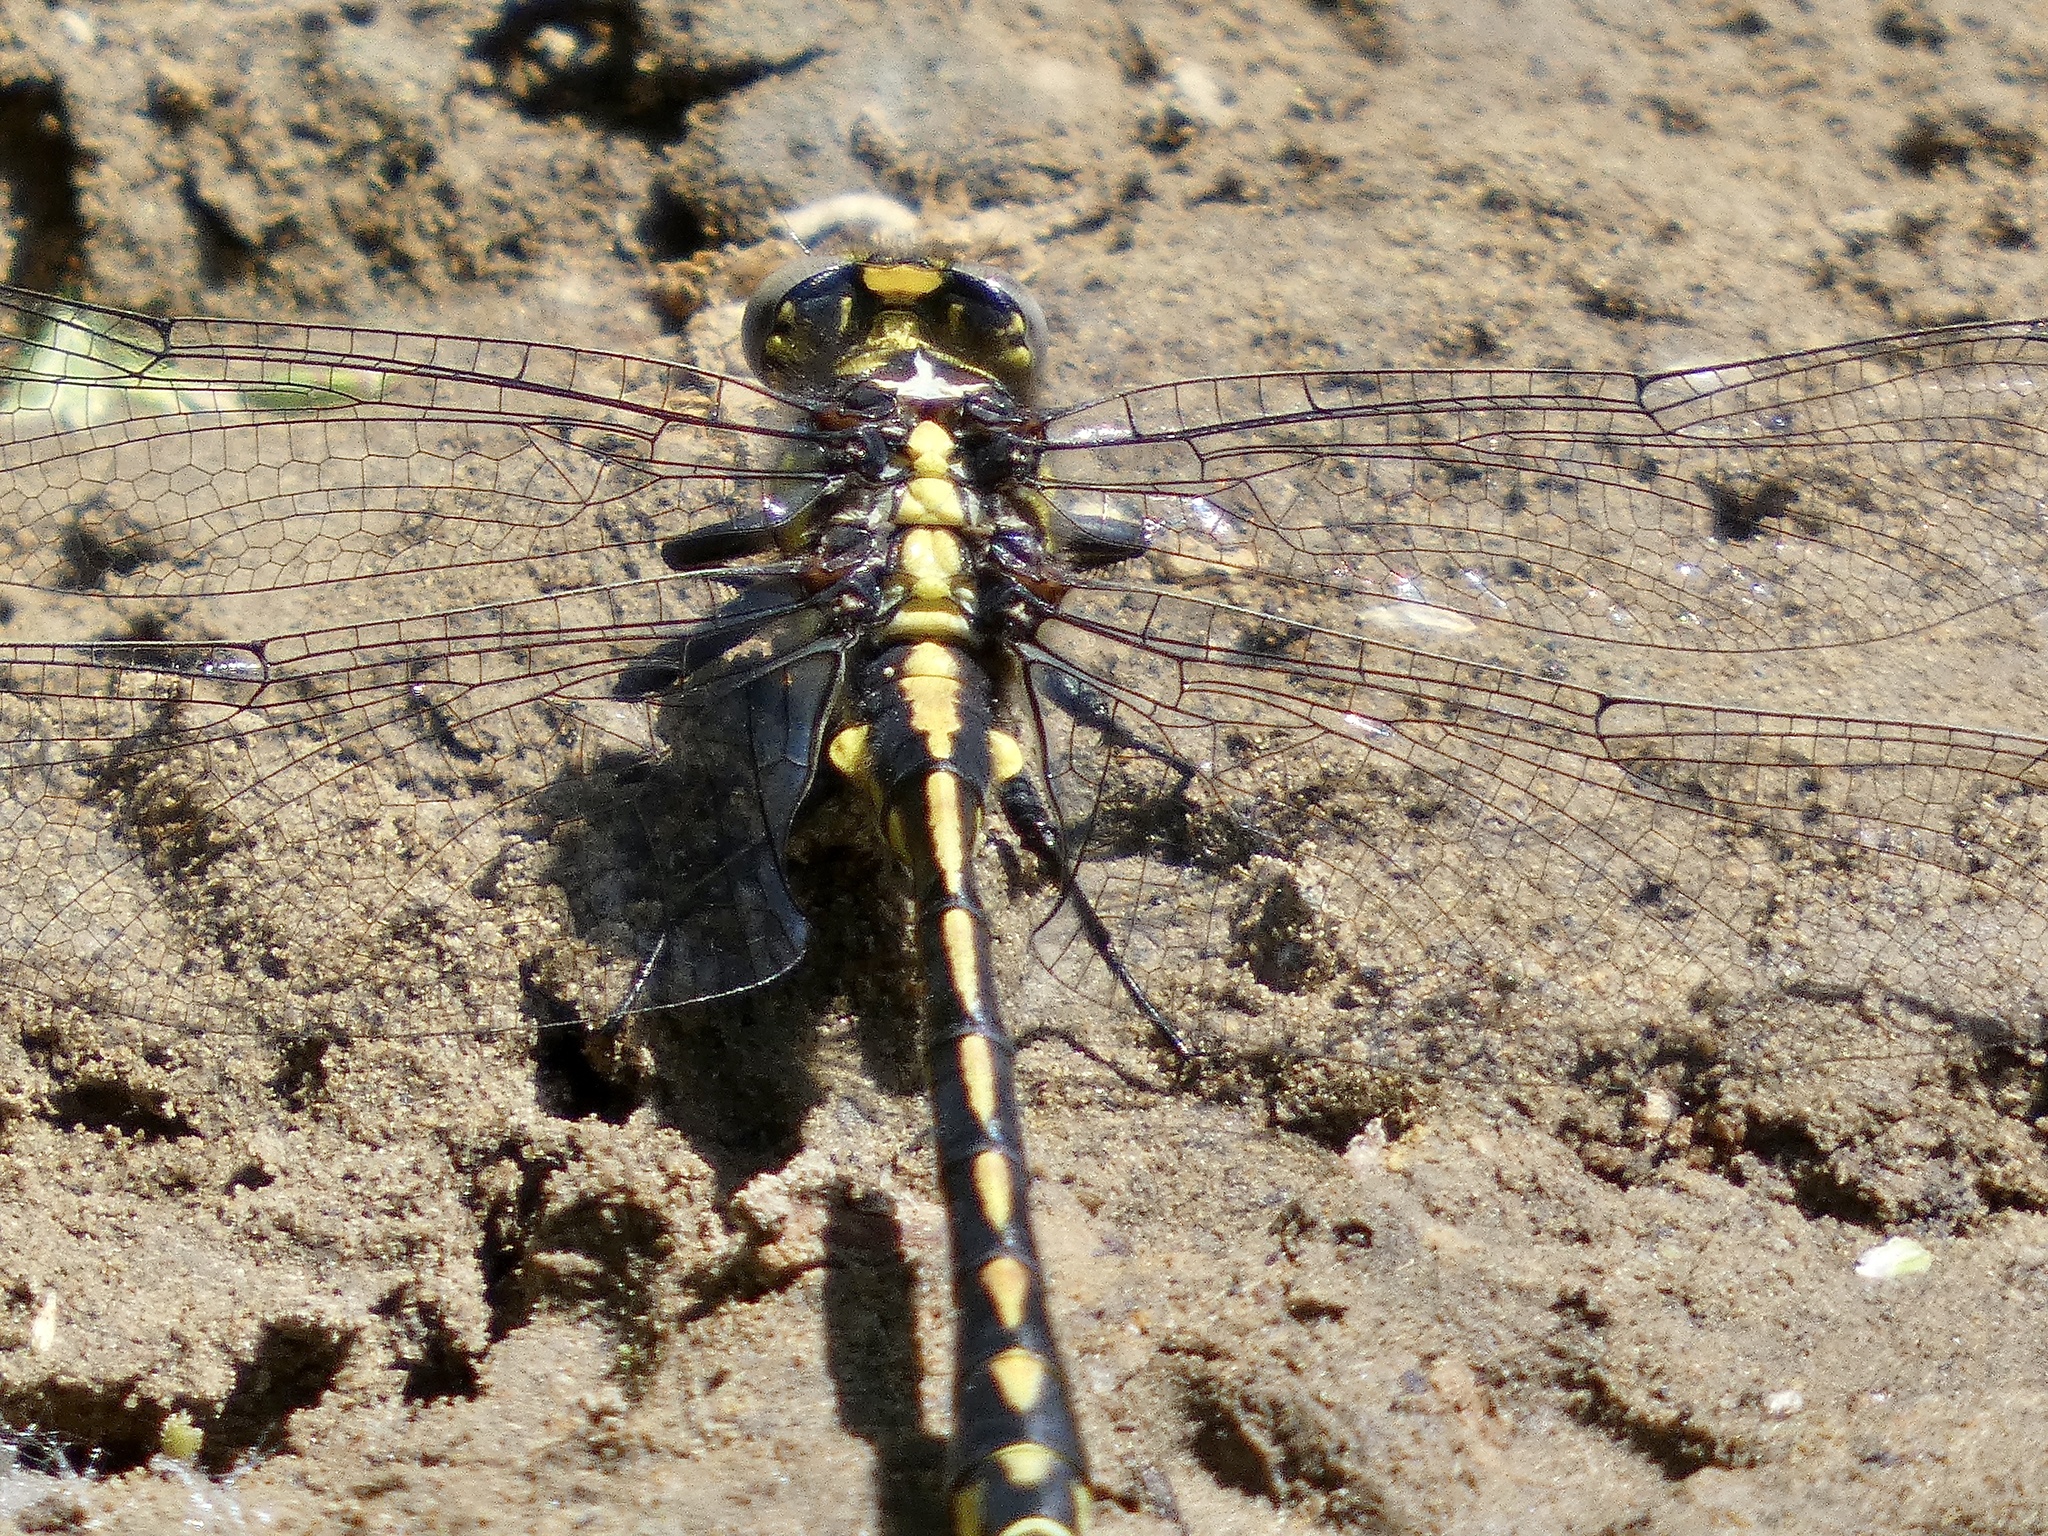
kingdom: Animalia
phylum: Arthropoda
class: Insecta
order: Odonata
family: Gomphidae
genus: Phanogomphus
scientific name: Phanogomphus kurilis
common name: Pacific clubtail
